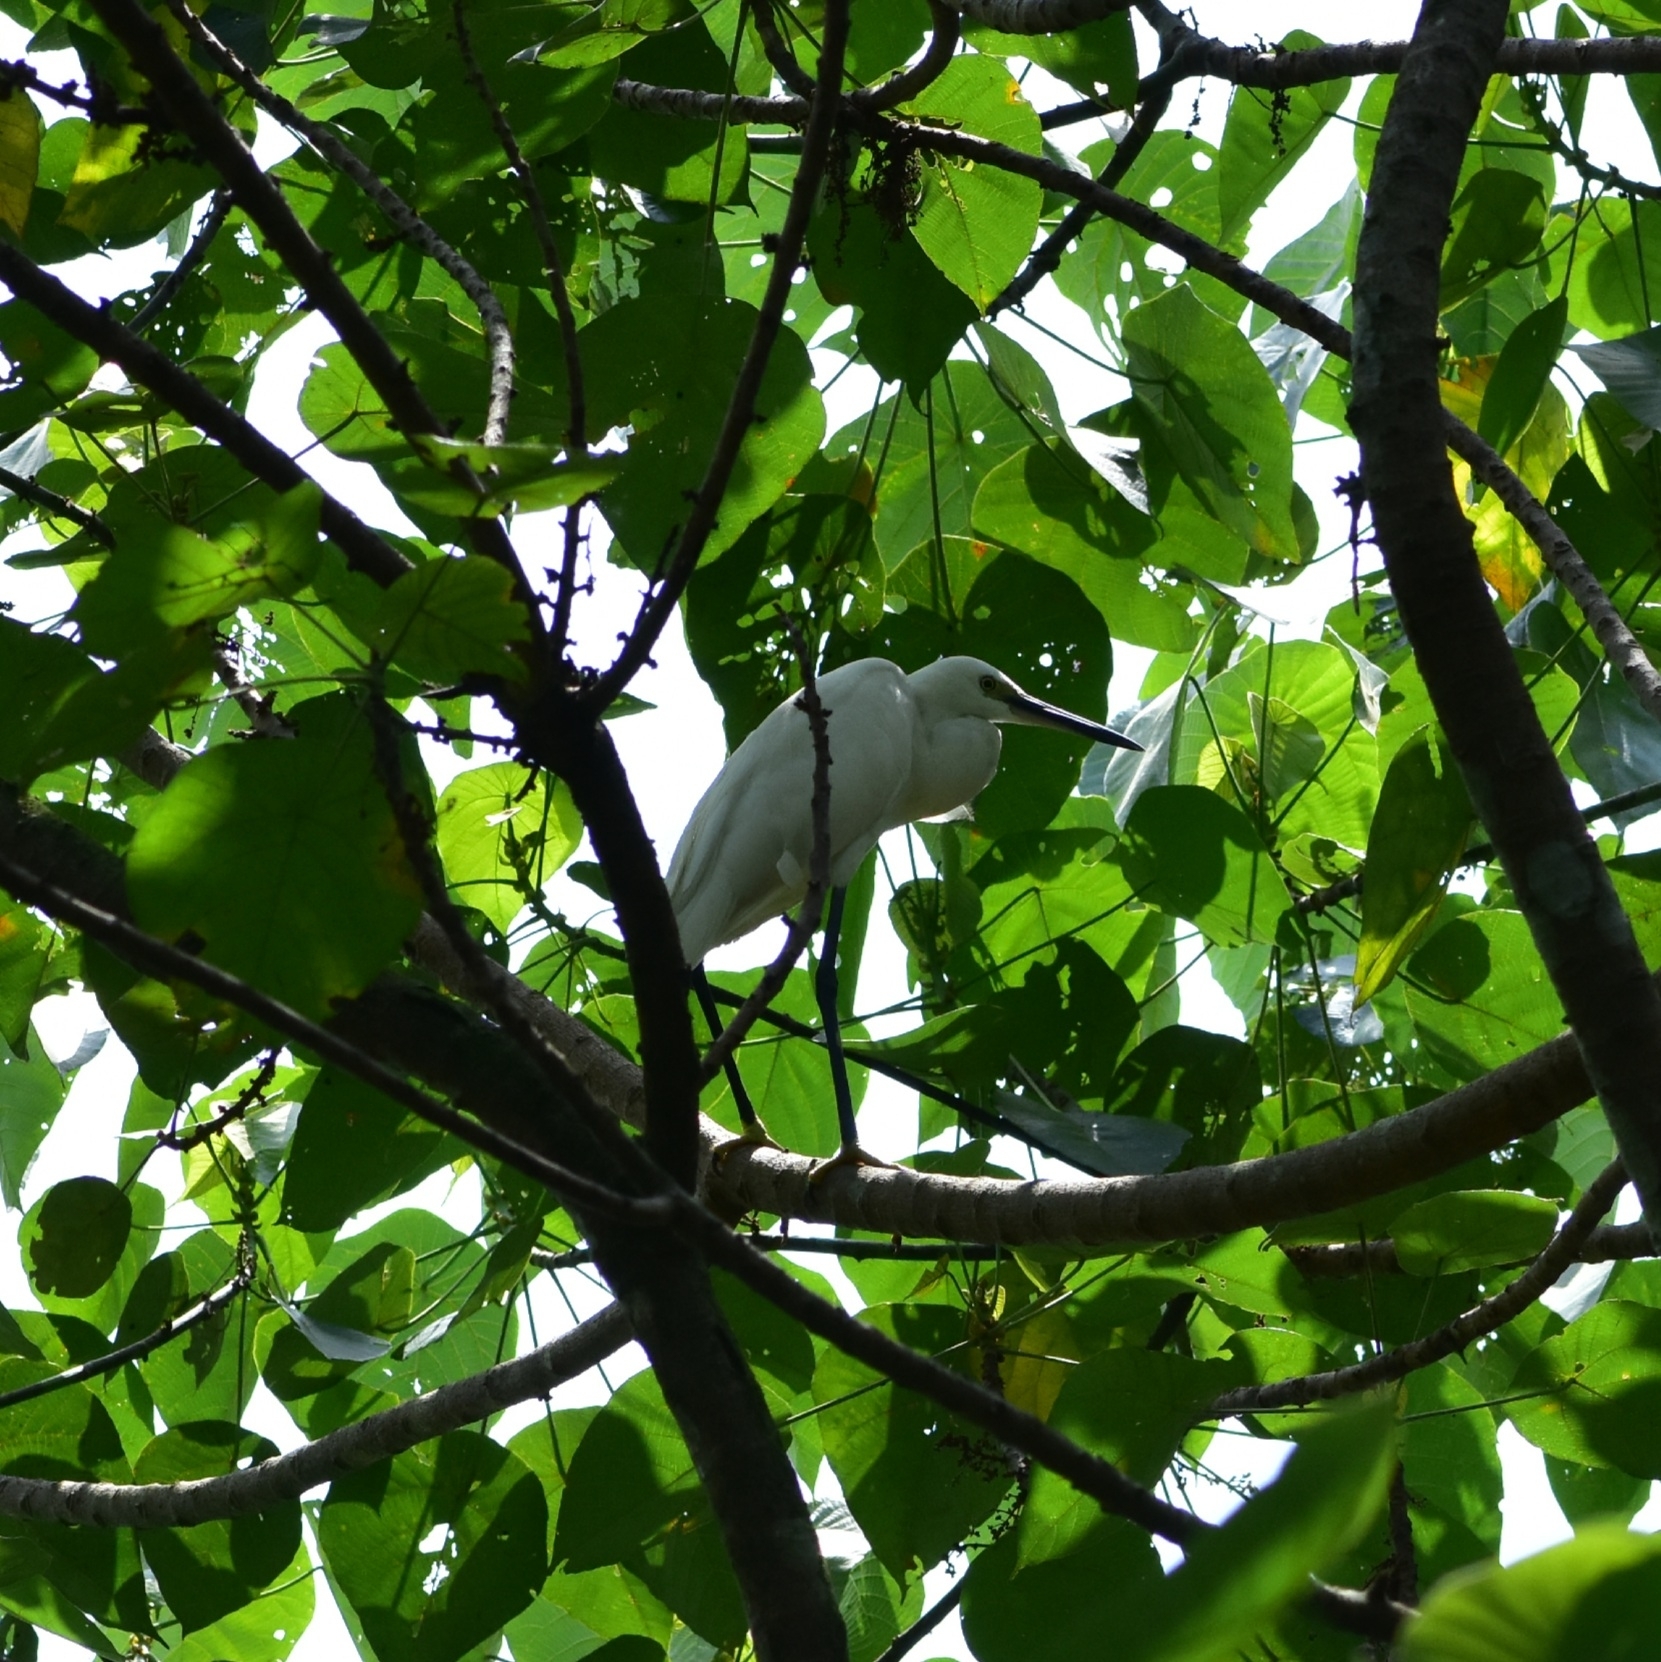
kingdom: Animalia
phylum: Chordata
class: Aves
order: Pelecaniformes
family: Ardeidae
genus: Egretta
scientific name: Egretta garzetta
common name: Little egret
